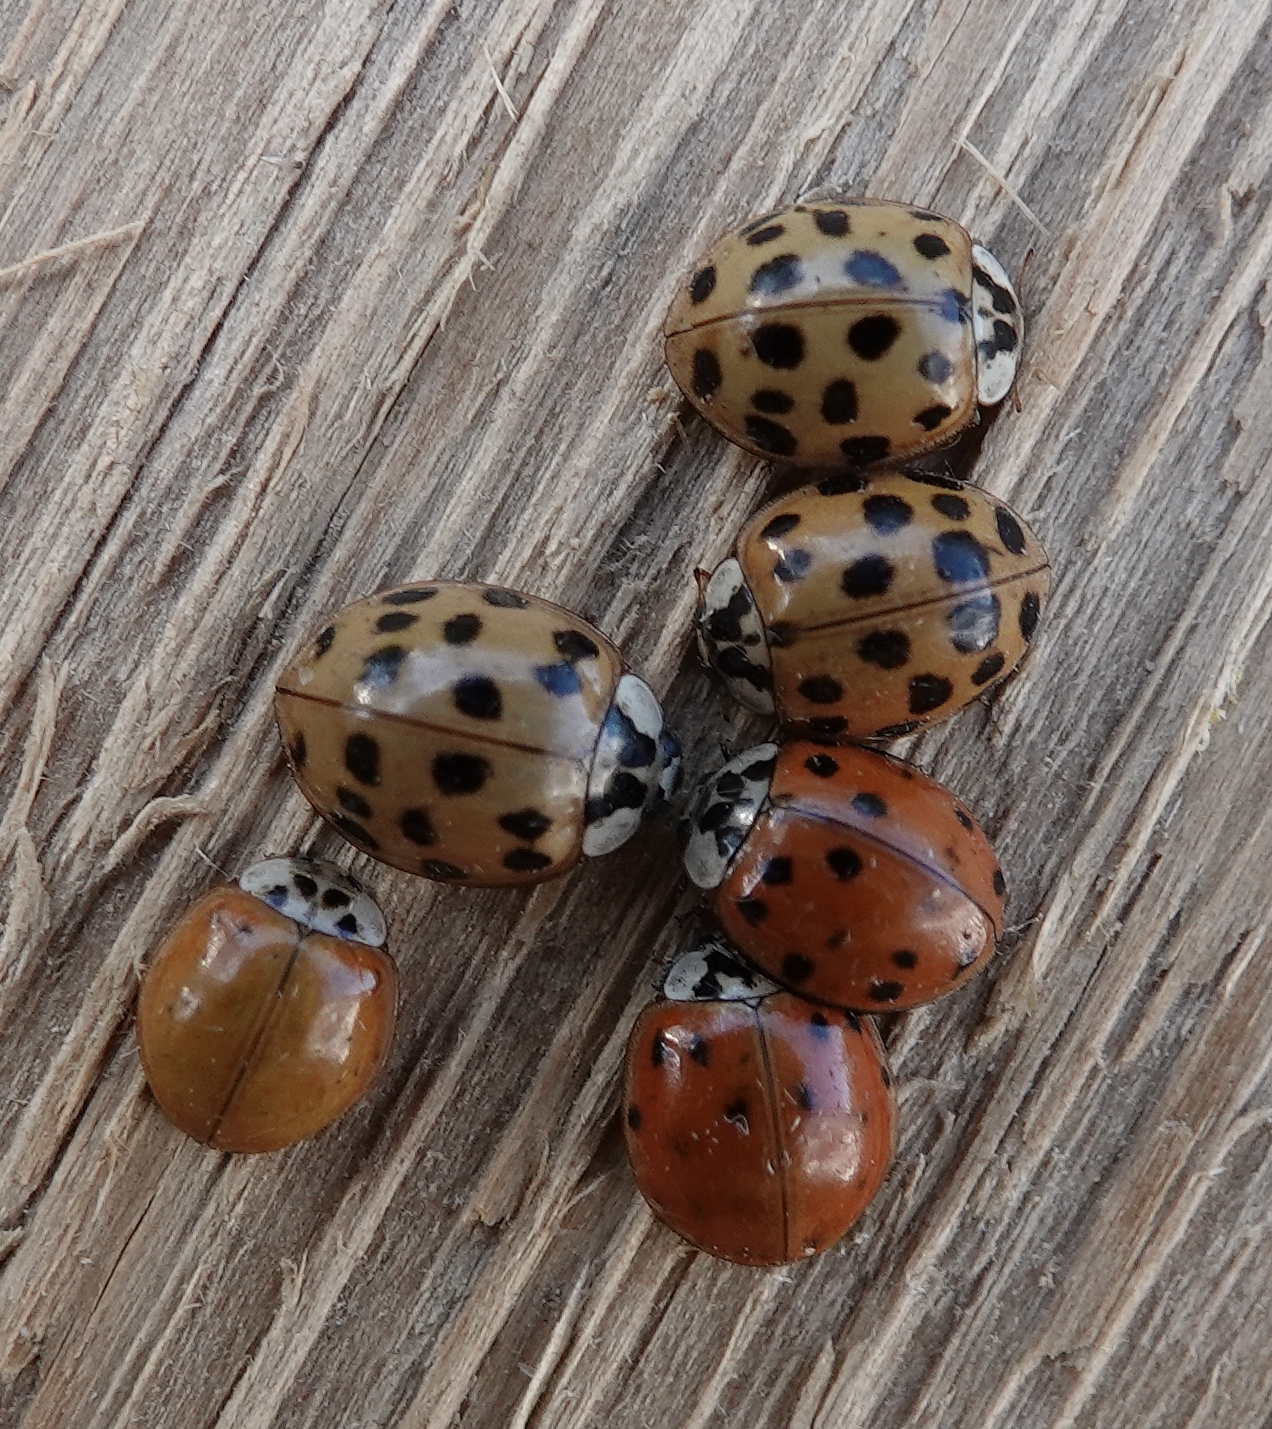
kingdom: Animalia
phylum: Arthropoda
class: Insecta
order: Coleoptera
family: Coccinellidae
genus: Harmonia
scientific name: Harmonia axyridis
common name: Harlequin ladybird
